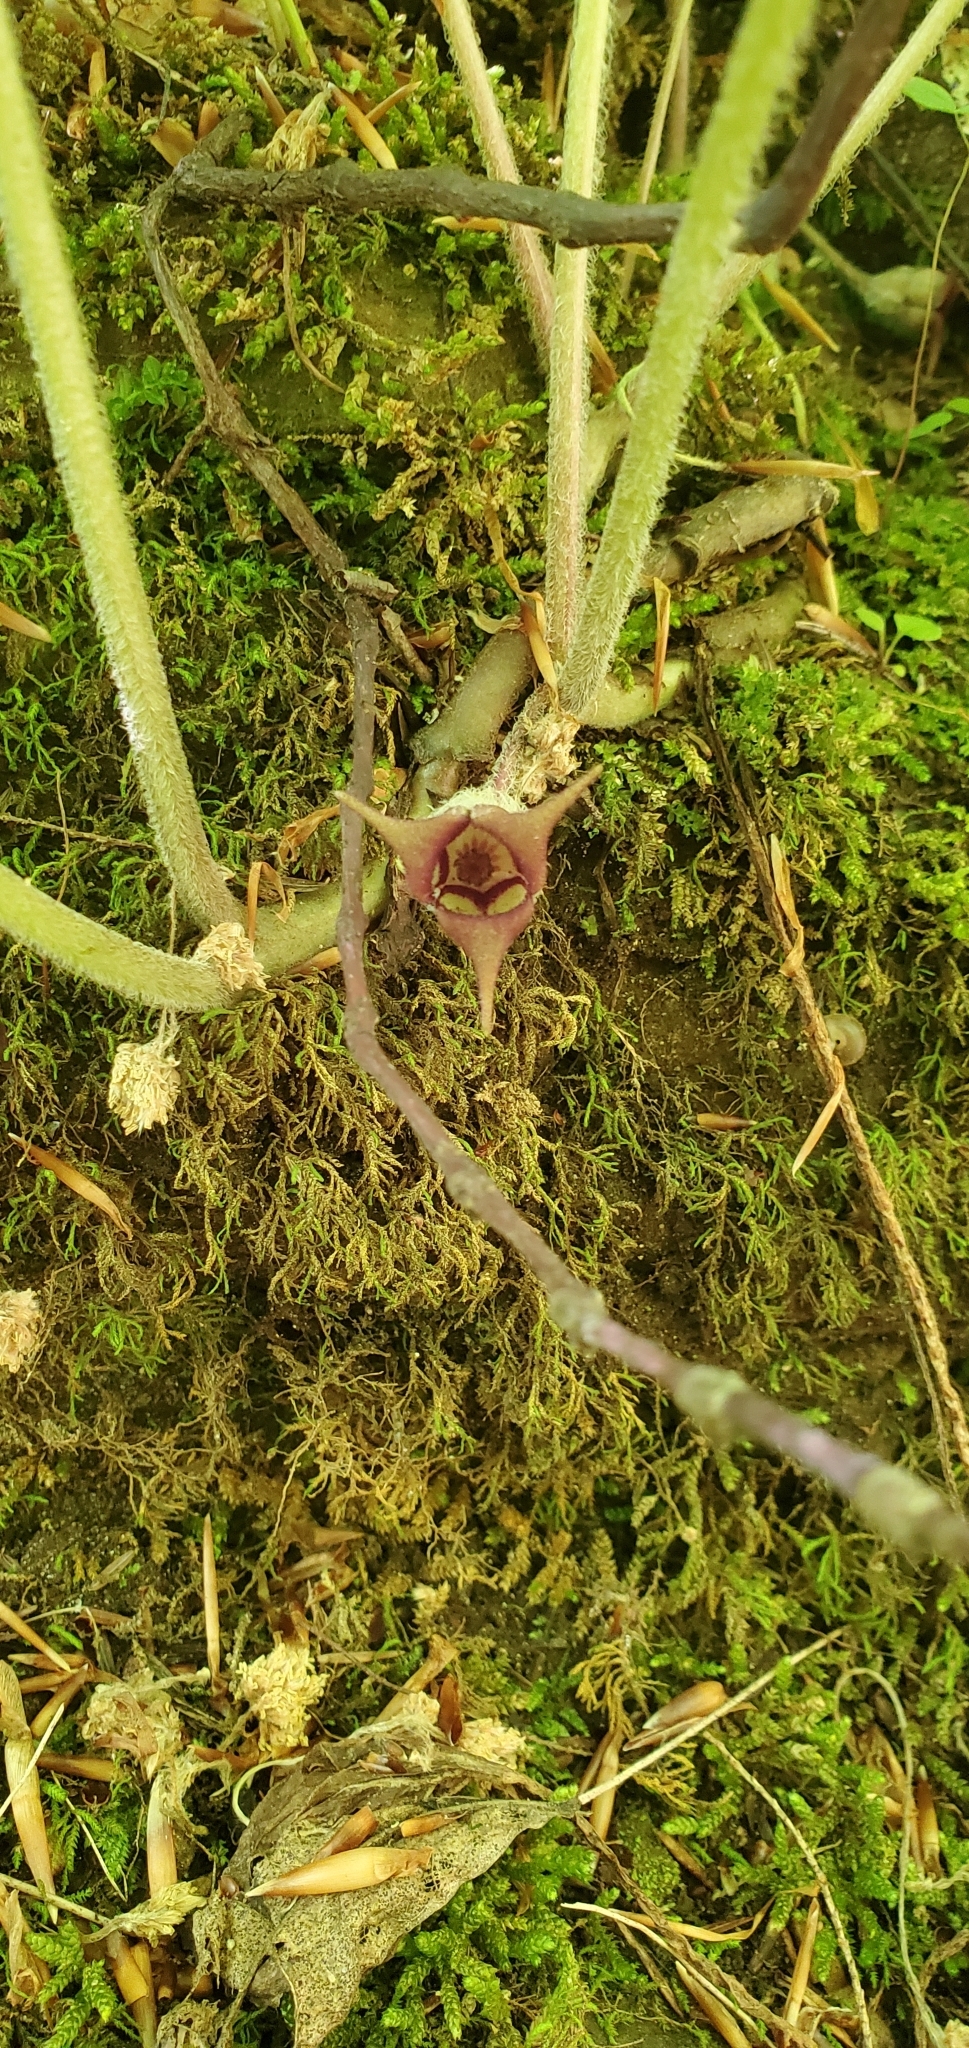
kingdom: Plantae
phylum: Tracheophyta
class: Magnoliopsida
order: Piperales
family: Aristolochiaceae
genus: Asarum
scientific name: Asarum canadense
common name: Wild ginger
